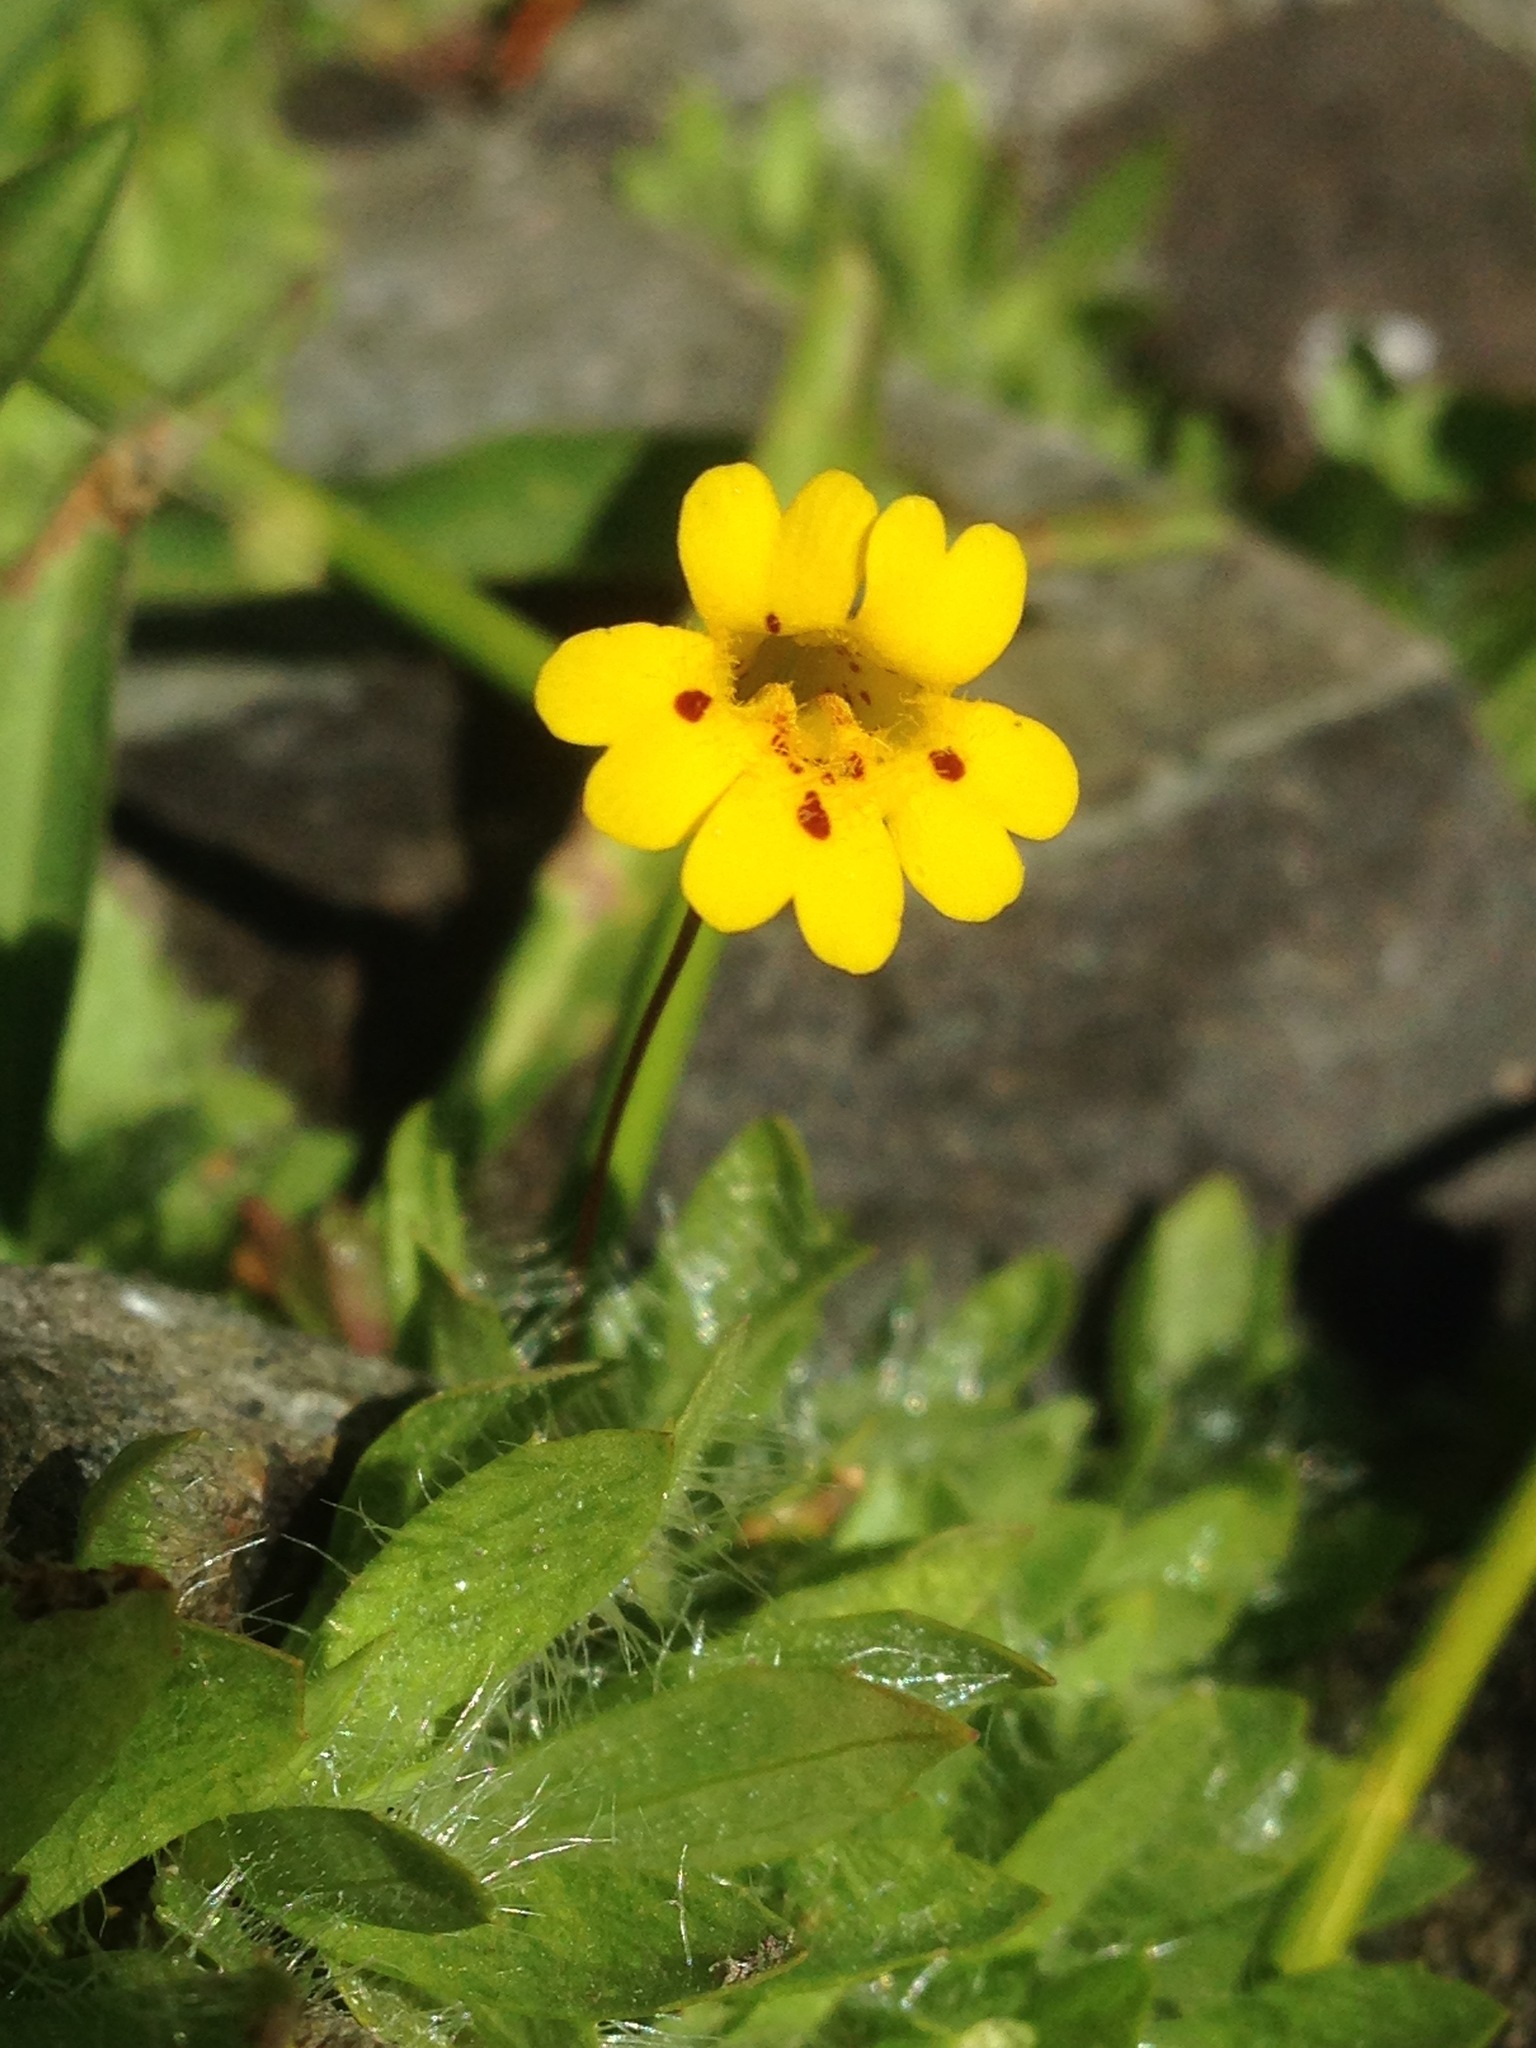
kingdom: Plantae
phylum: Tracheophyta
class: Magnoliopsida
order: Lamiales
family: Phrymaceae
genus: Erythranthe
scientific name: Erythranthe primuloides
